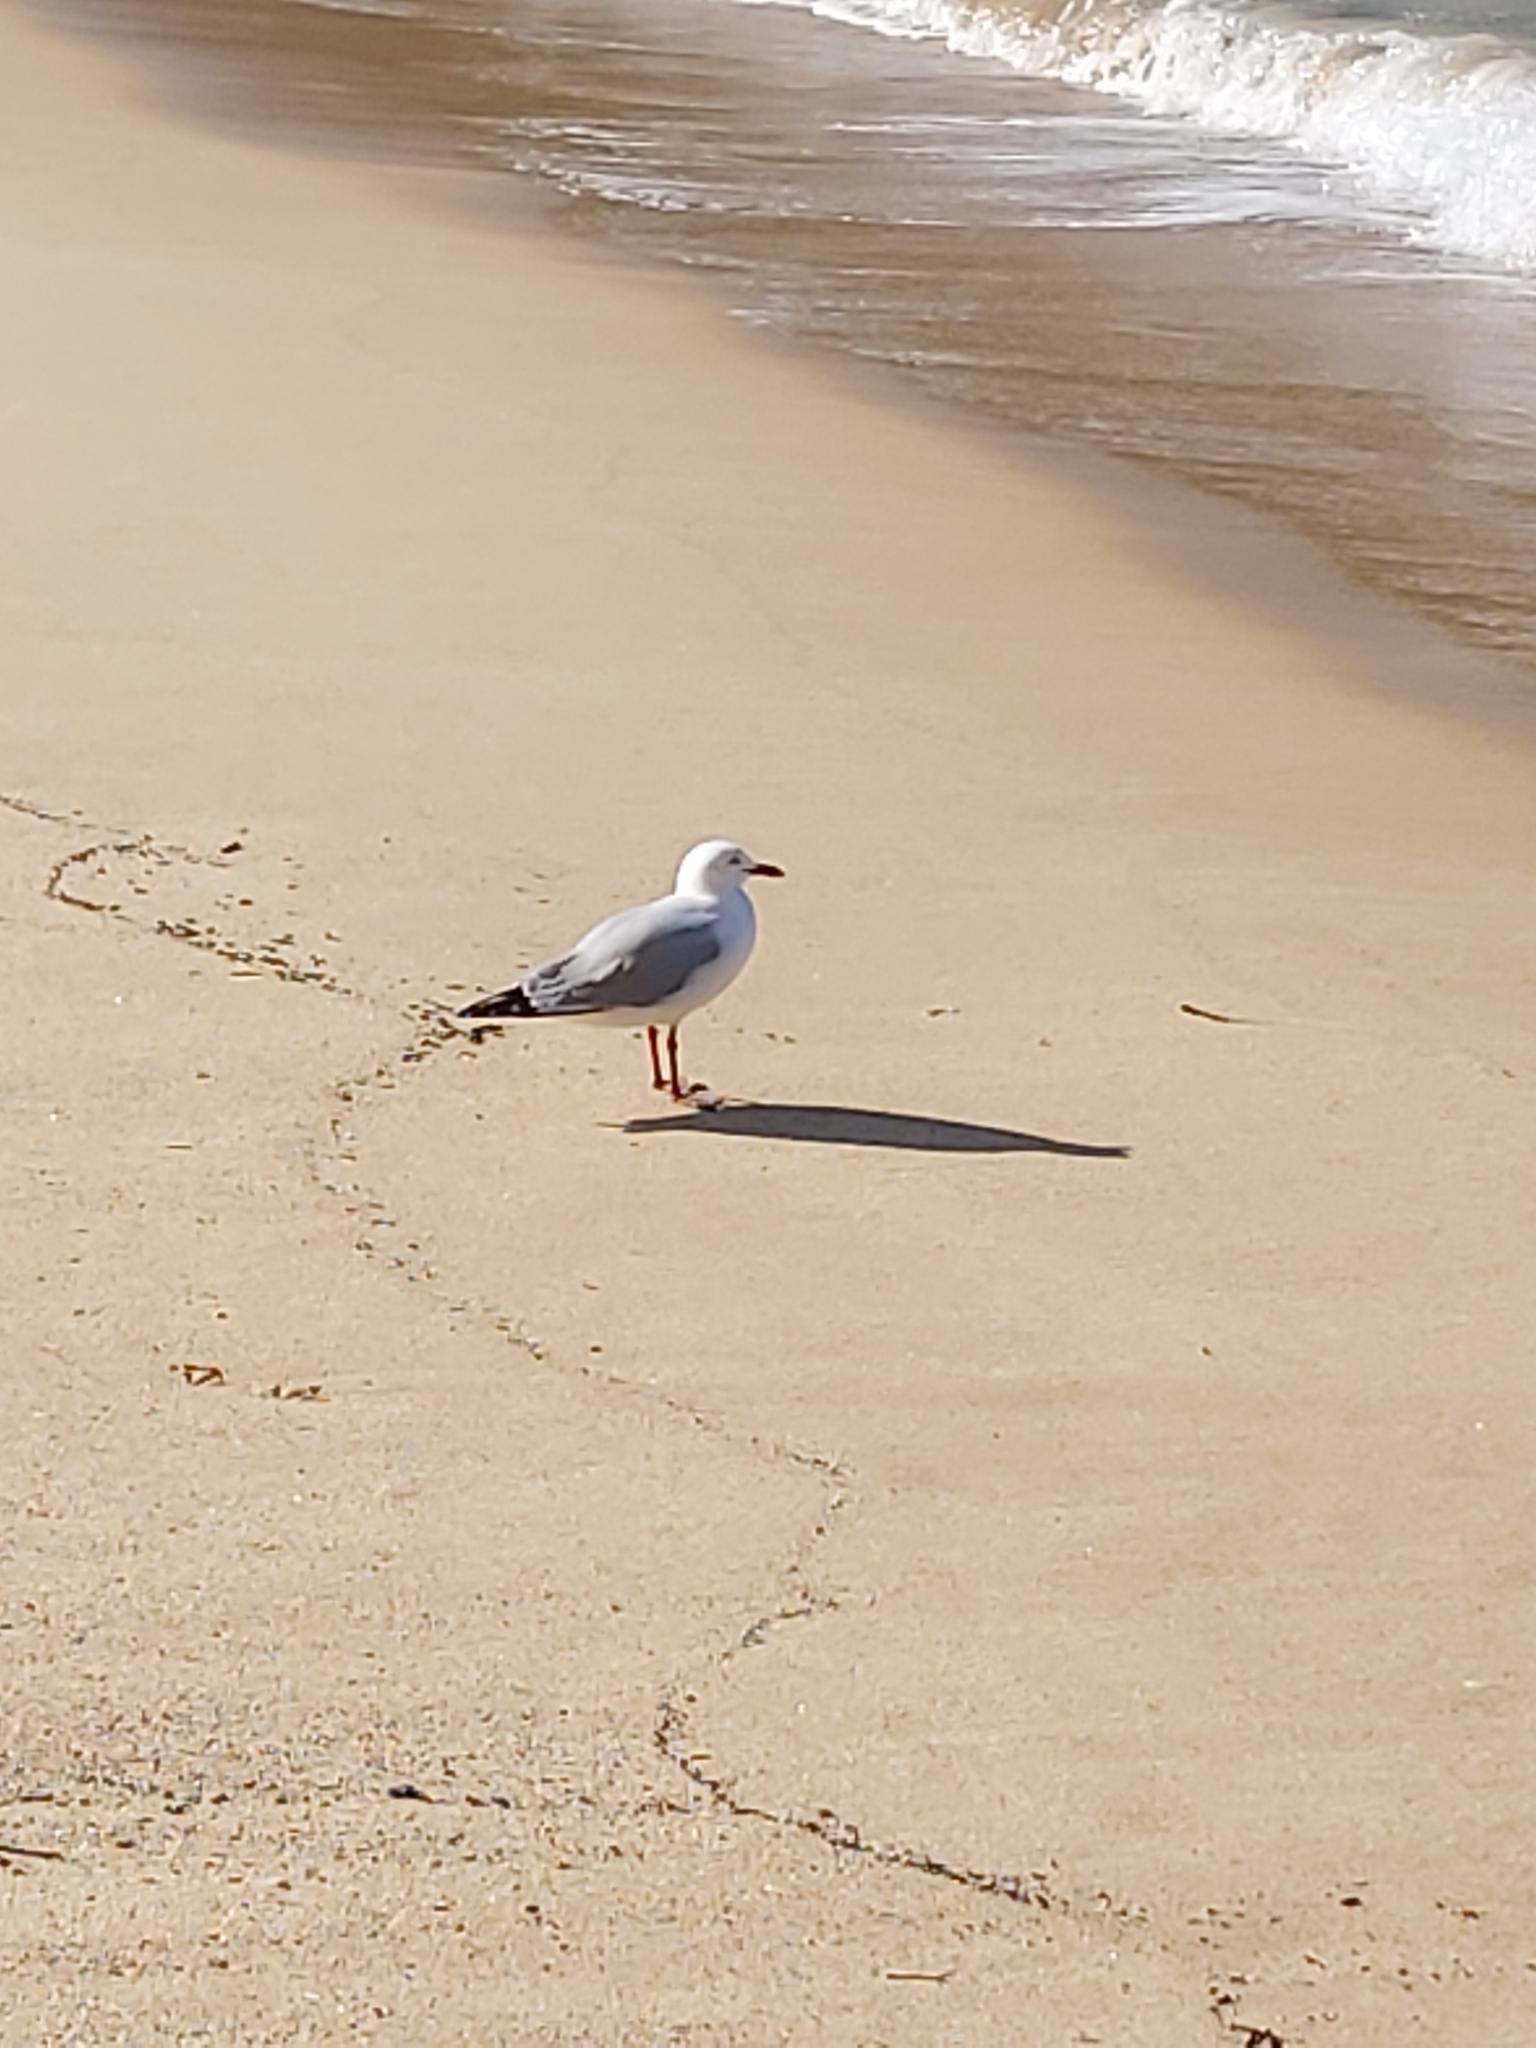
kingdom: Animalia
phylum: Chordata
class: Aves
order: Charadriiformes
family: Laridae
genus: Chroicocephalus
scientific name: Chroicocephalus novaehollandiae
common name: Silver gull
